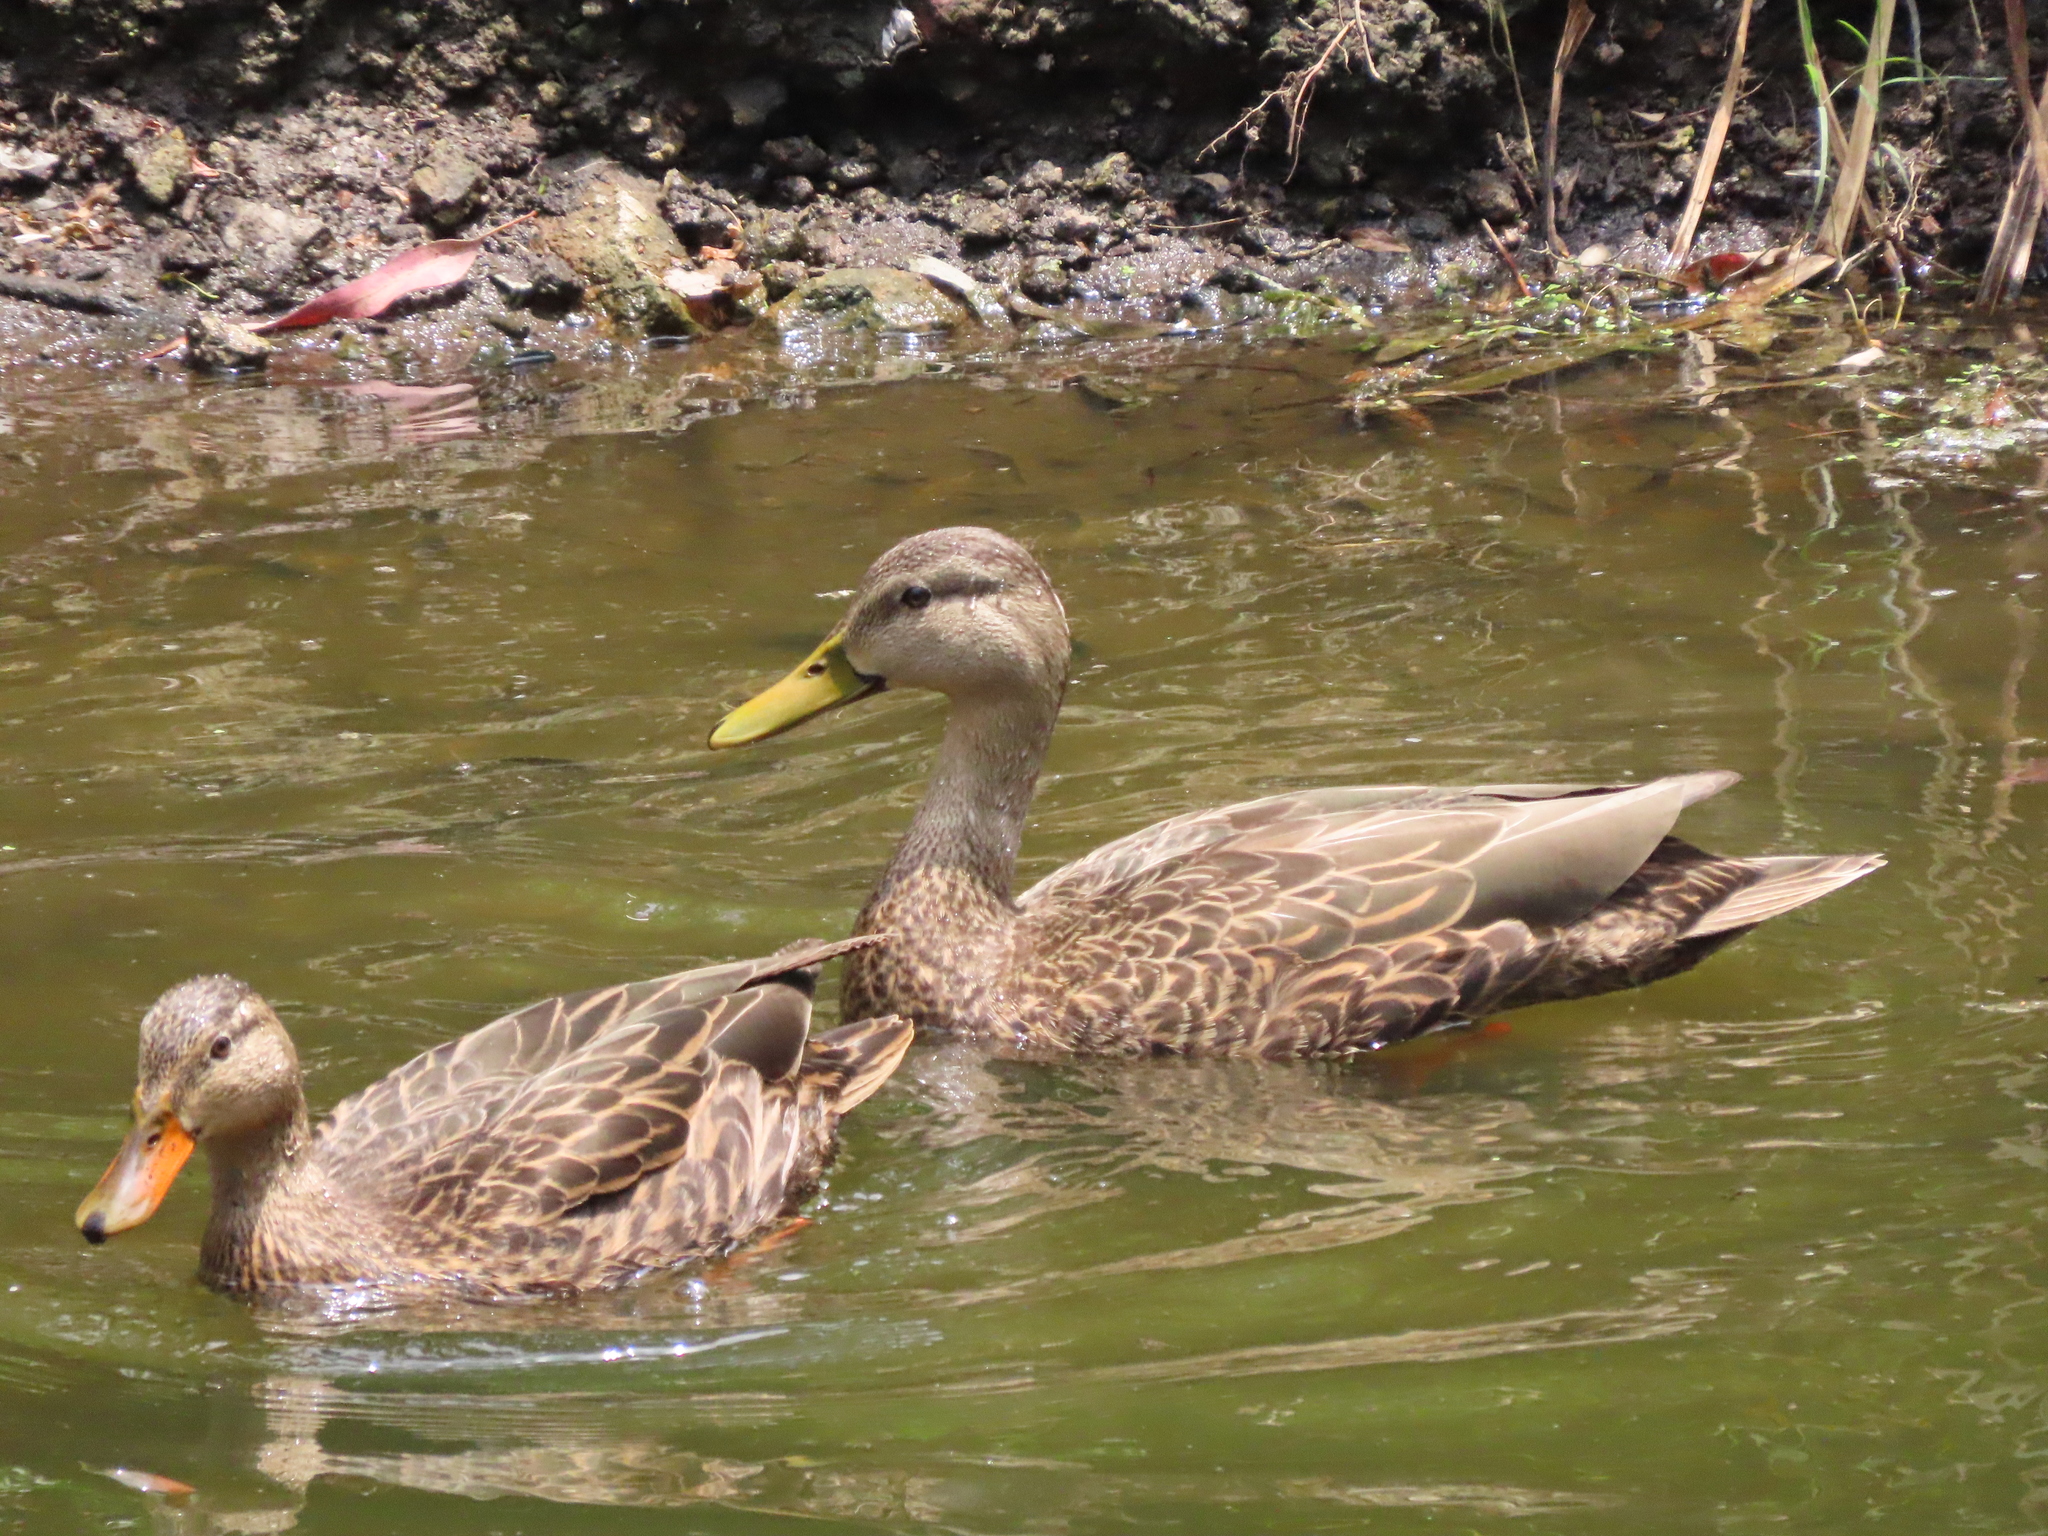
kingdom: Animalia
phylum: Chordata
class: Aves
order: Anseriformes
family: Anatidae
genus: Anas
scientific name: Anas diazi
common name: Mexican duck
